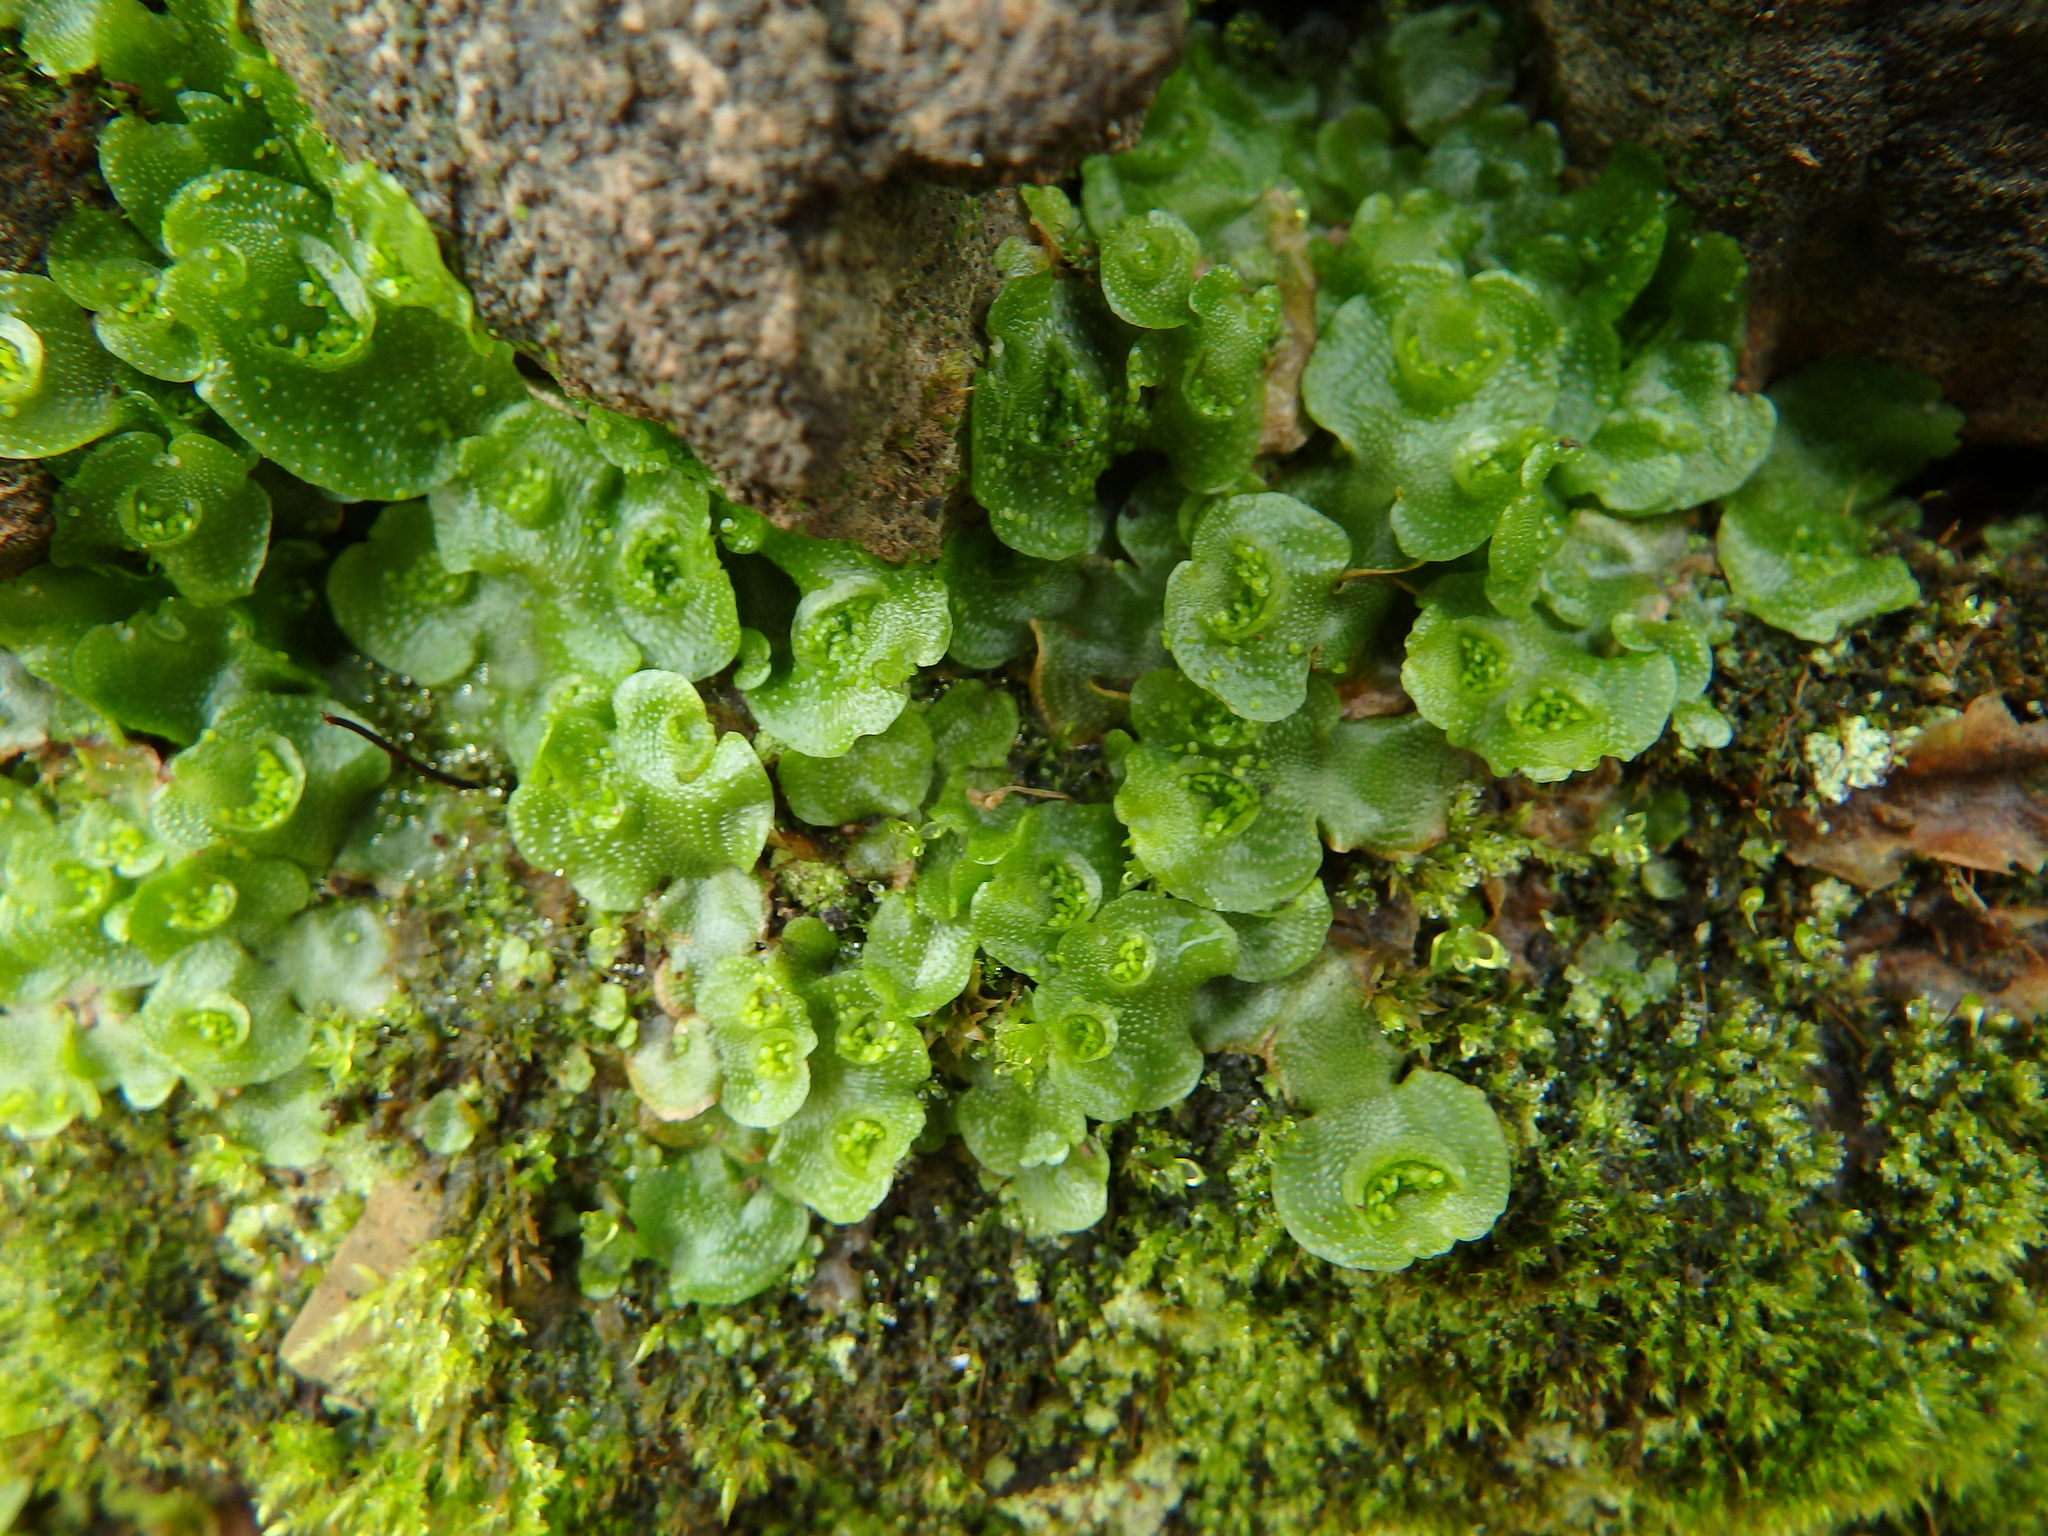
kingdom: Plantae
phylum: Marchantiophyta
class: Marchantiopsida
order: Lunulariales
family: Lunulariaceae
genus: Lunularia
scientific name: Lunularia cruciata
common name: Crescent-cup liverwort
